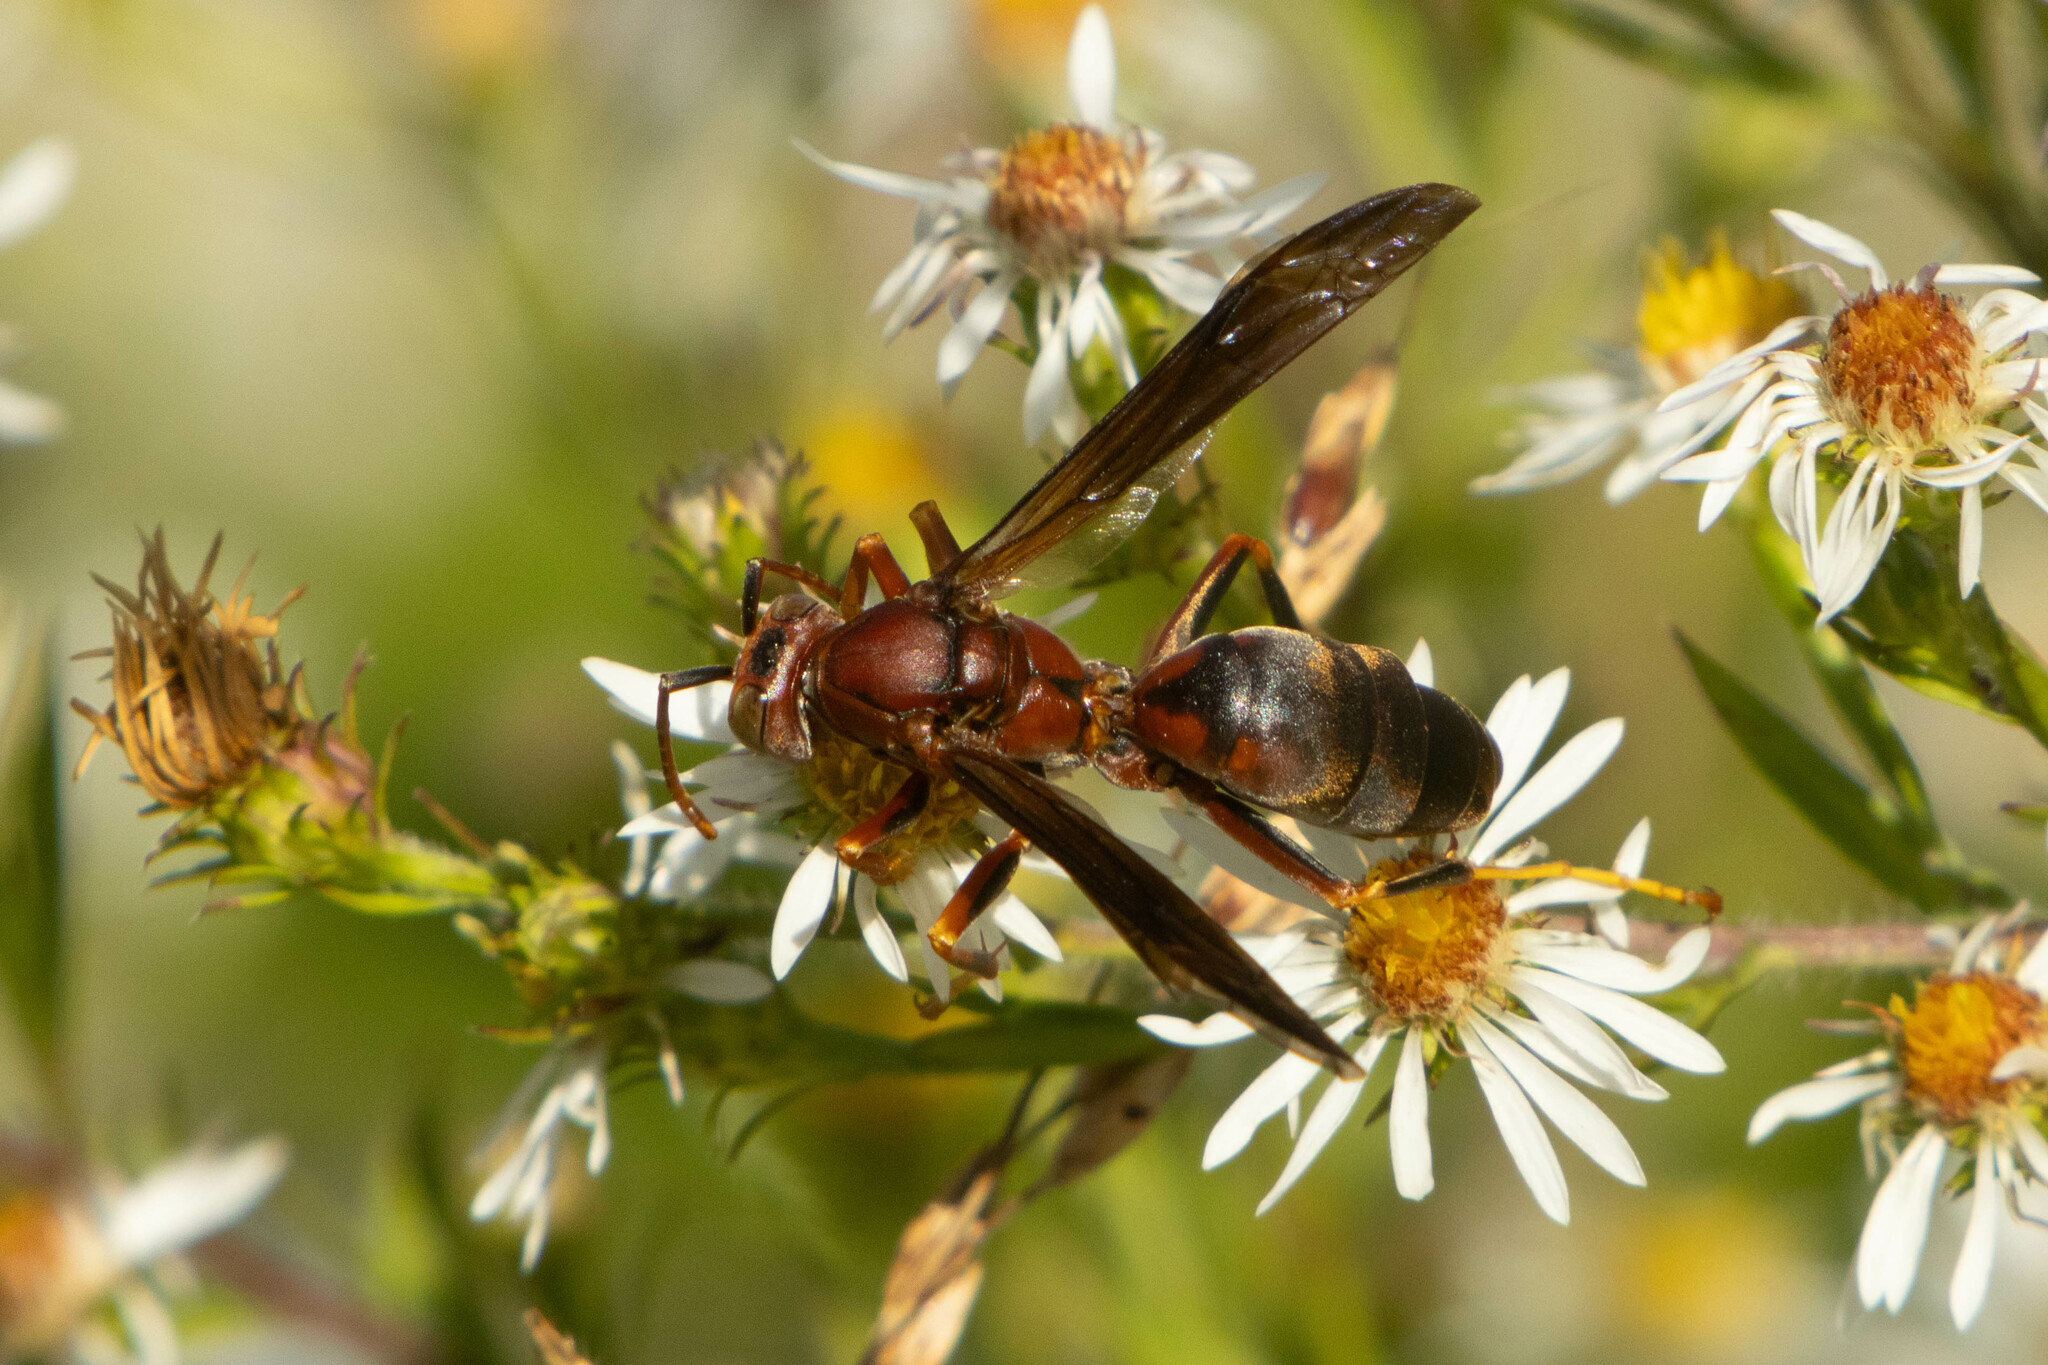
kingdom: Animalia
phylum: Arthropoda
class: Insecta
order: Hymenoptera
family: Eumenidae
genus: Polistes
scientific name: Polistes metricus
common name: Metric paper wasp
